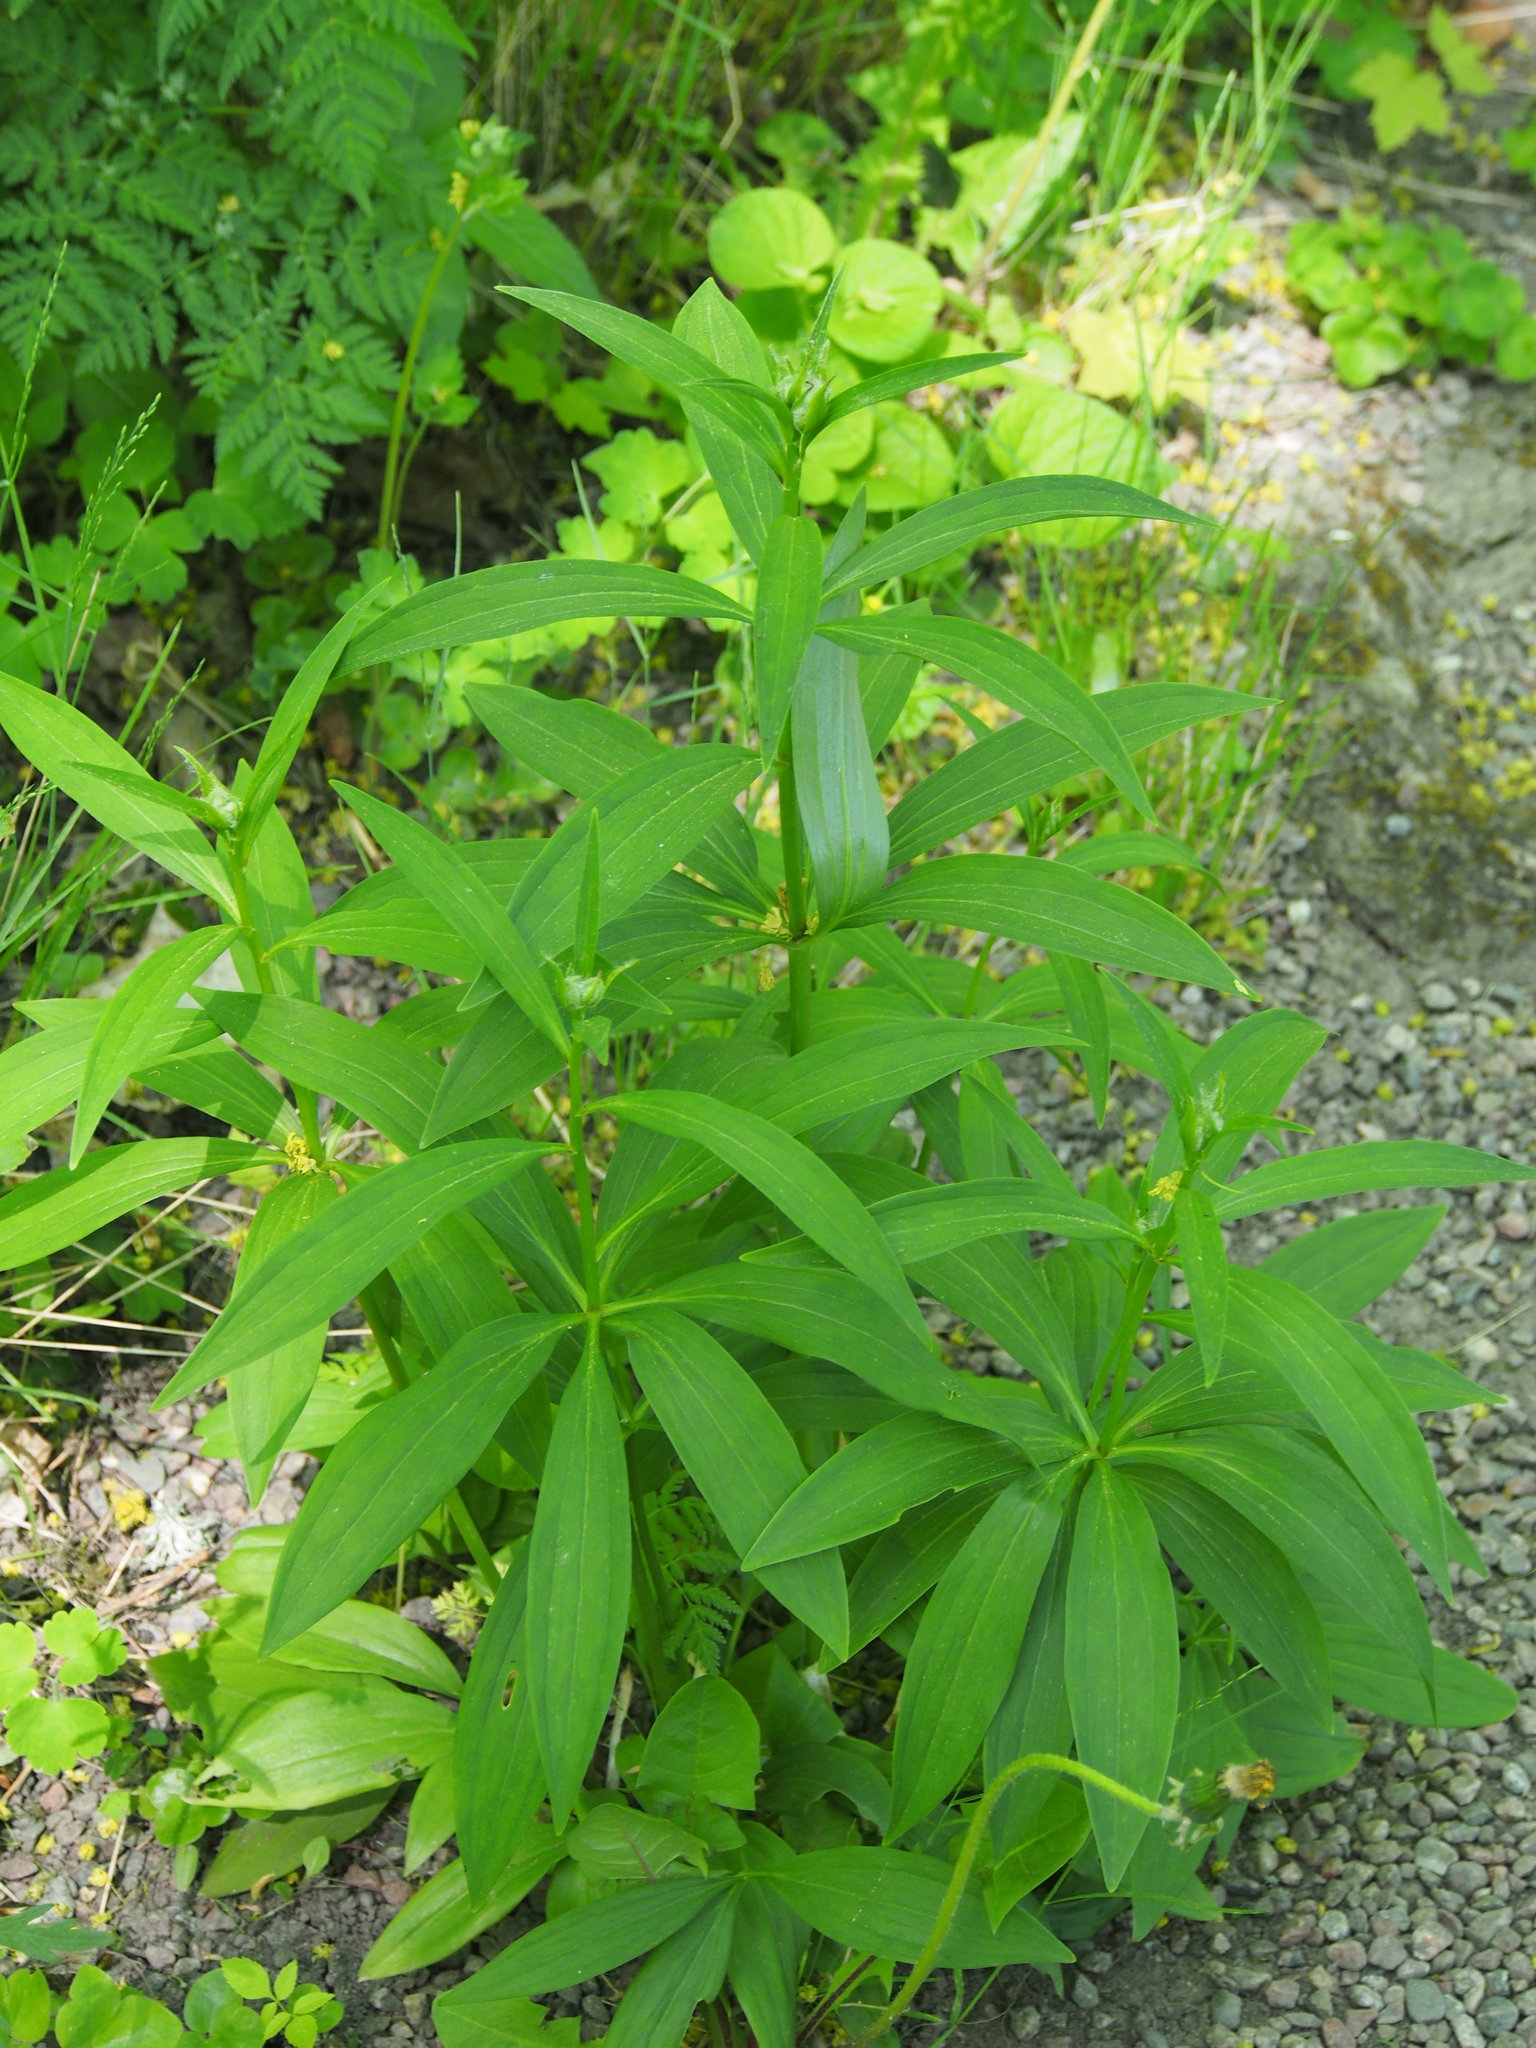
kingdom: Plantae
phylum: Tracheophyta
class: Liliopsida
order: Liliales
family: Liliaceae
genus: Lilium
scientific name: Lilium martagon
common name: Martagon lily
